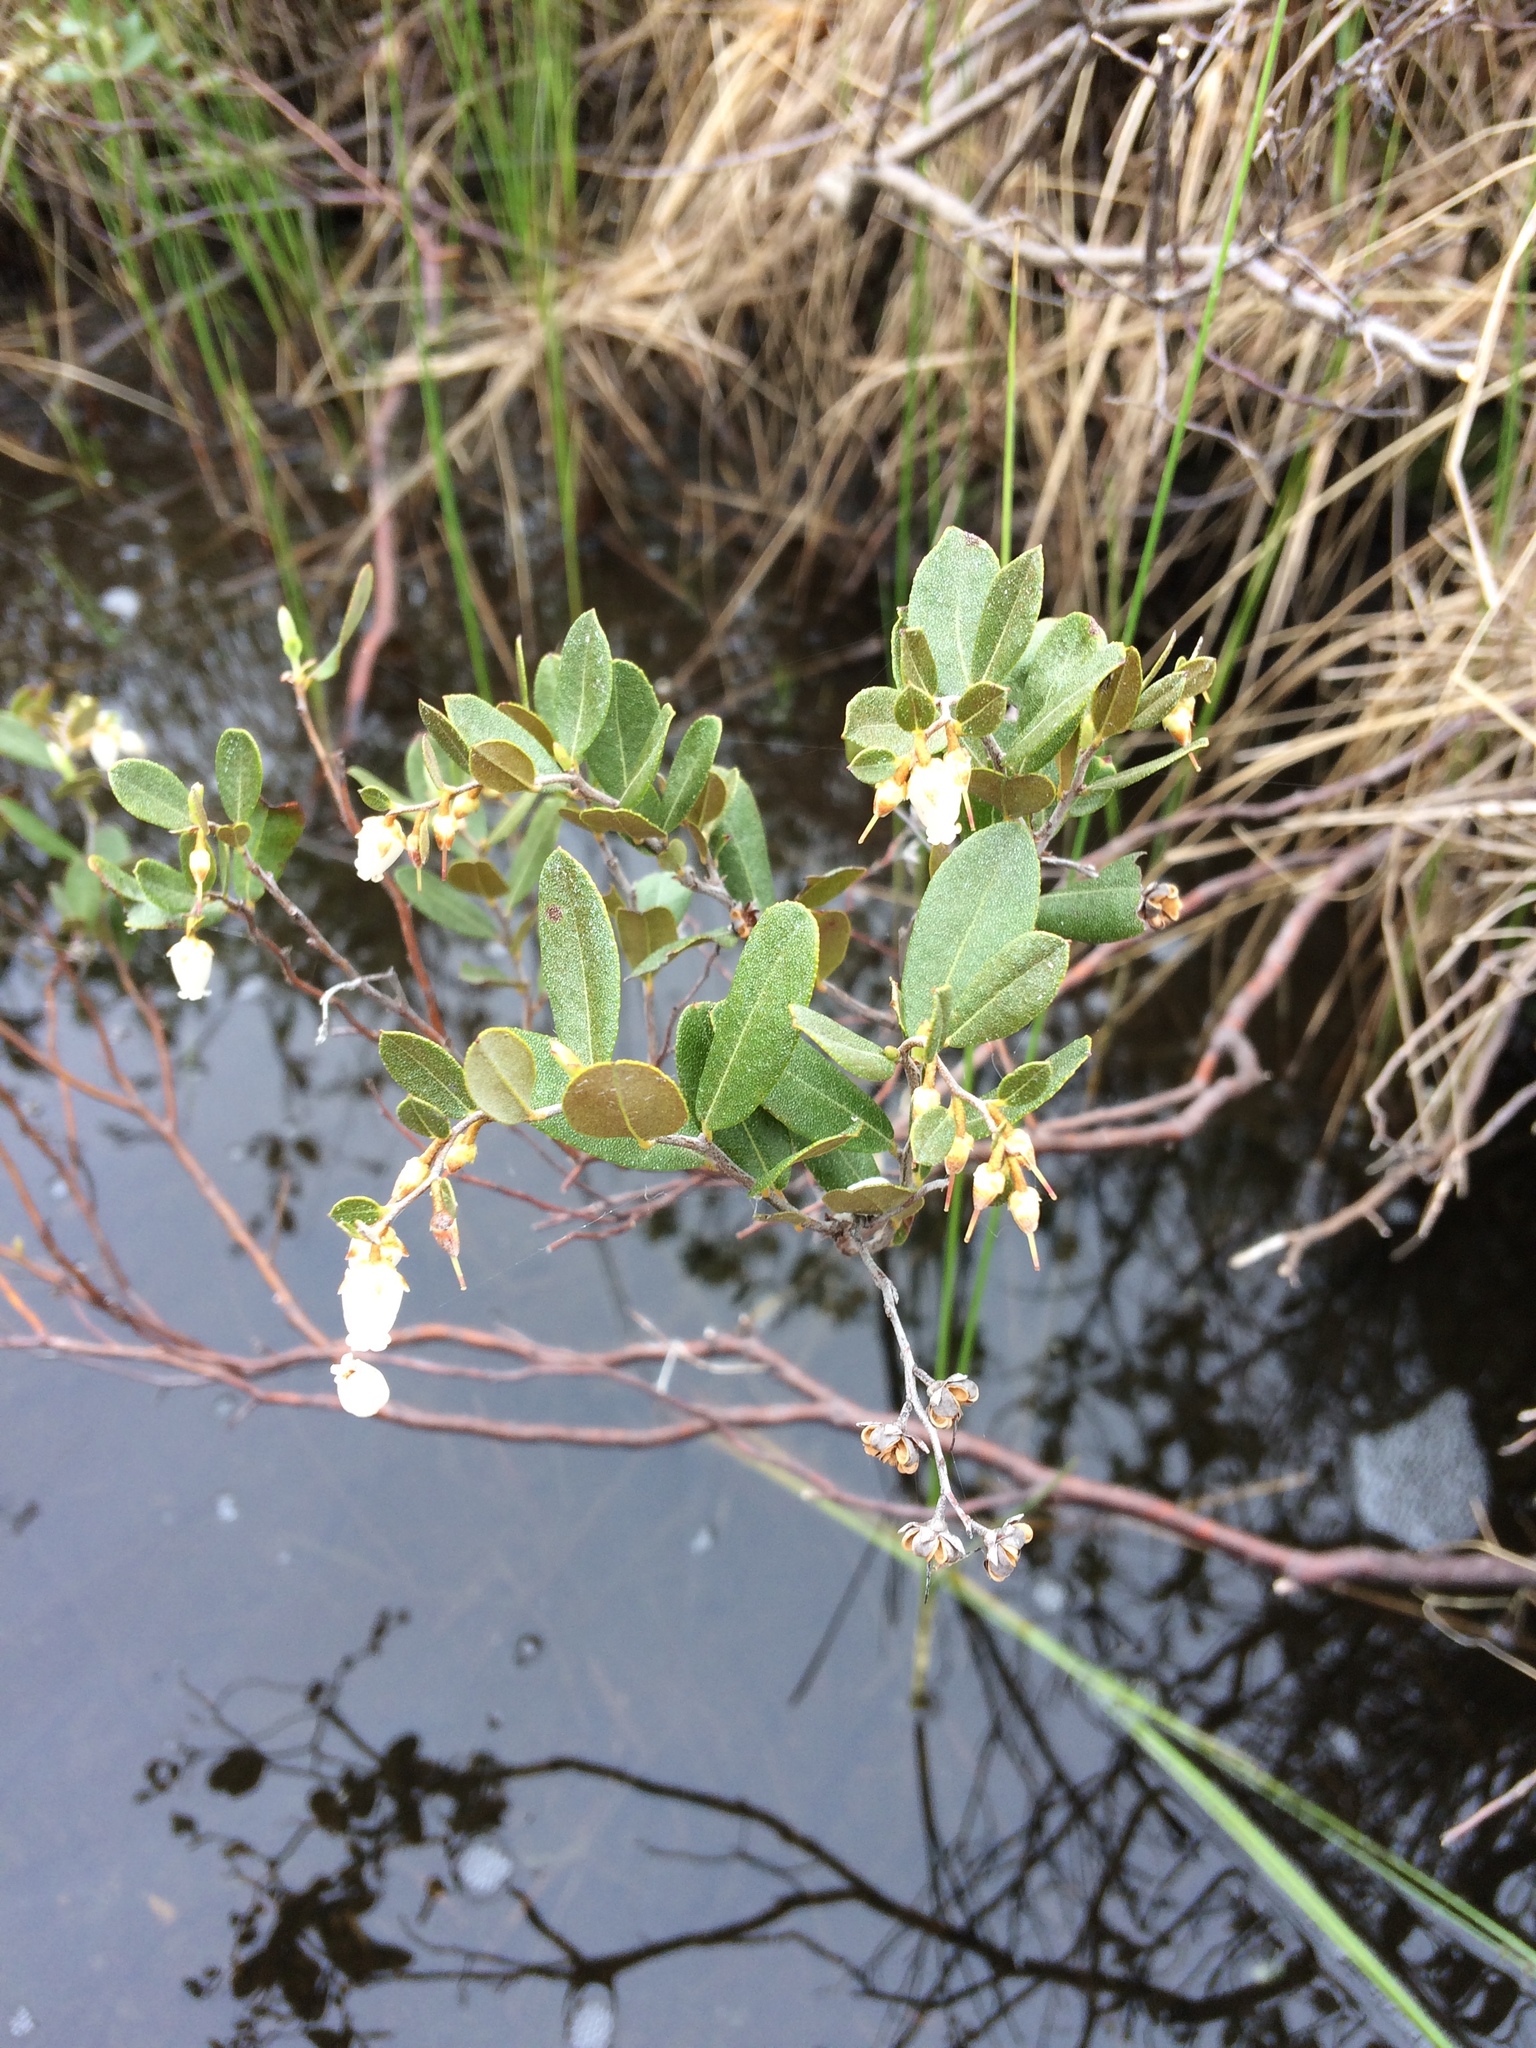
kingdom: Plantae
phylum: Tracheophyta
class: Magnoliopsida
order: Ericales
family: Ericaceae
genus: Chamaedaphne
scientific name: Chamaedaphne calyculata
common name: Leatherleaf
